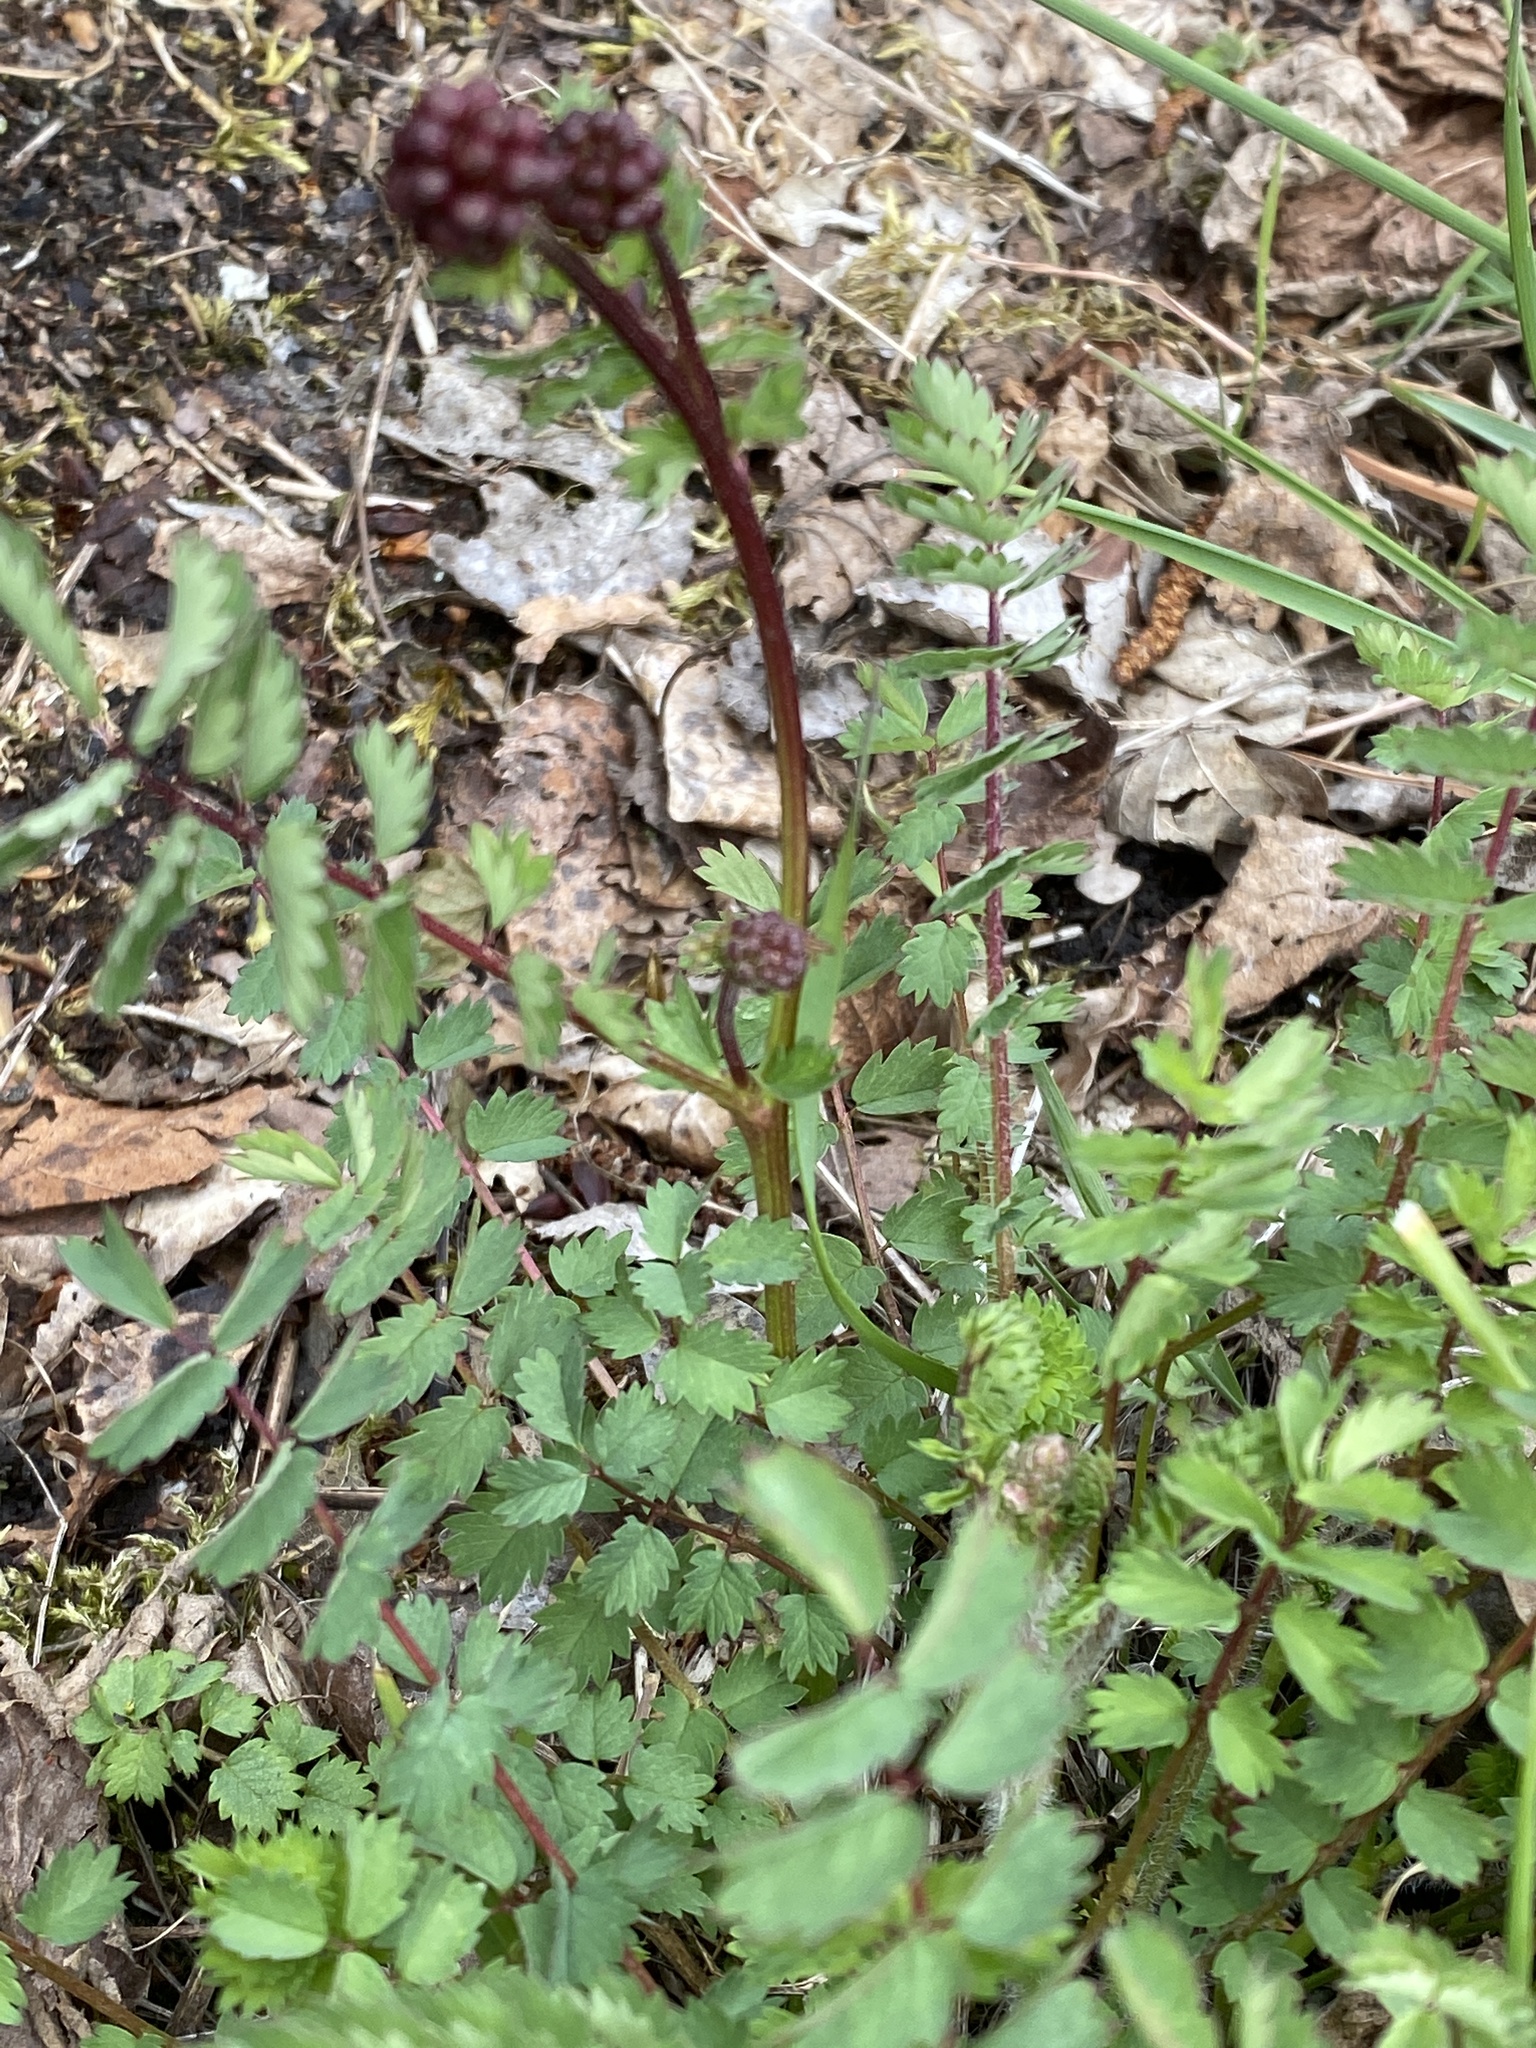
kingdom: Plantae
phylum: Tracheophyta
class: Magnoliopsida
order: Rosales
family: Rosaceae
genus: Poterium
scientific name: Poterium sanguisorba
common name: Salad burnet
